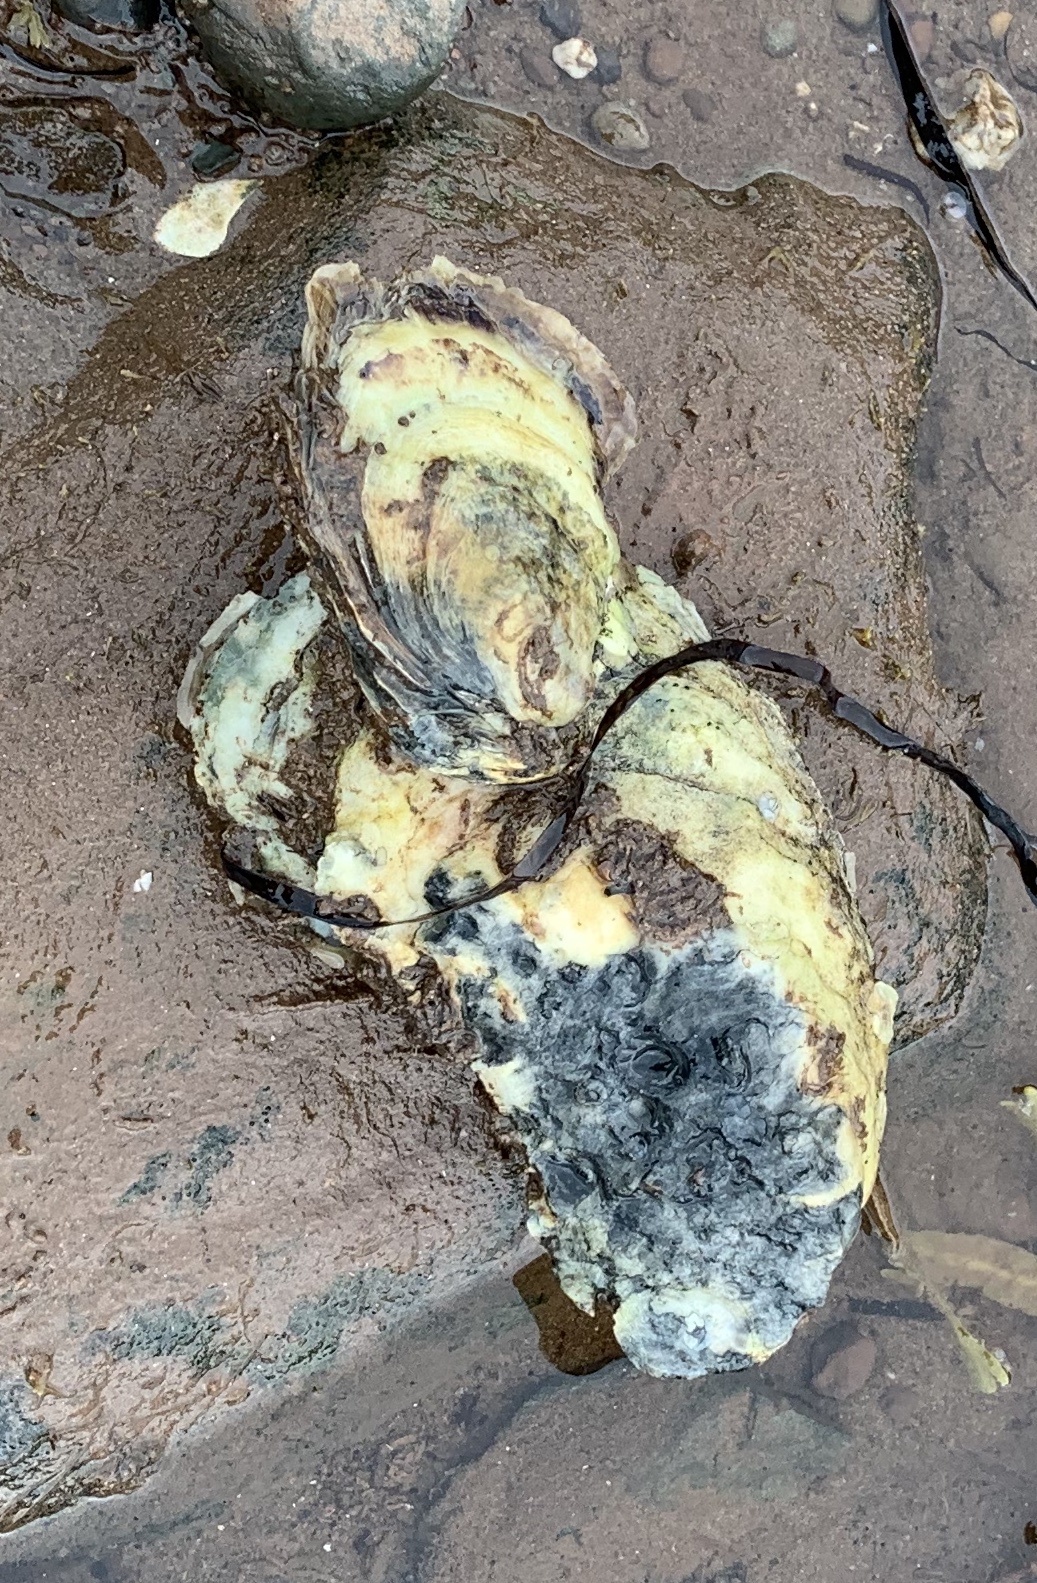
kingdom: Animalia
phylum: Mollusca
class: Bivalvia
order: Ostreida
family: Ostreidae
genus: Crassostrea
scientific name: Crassostrea virginica
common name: American oyster
